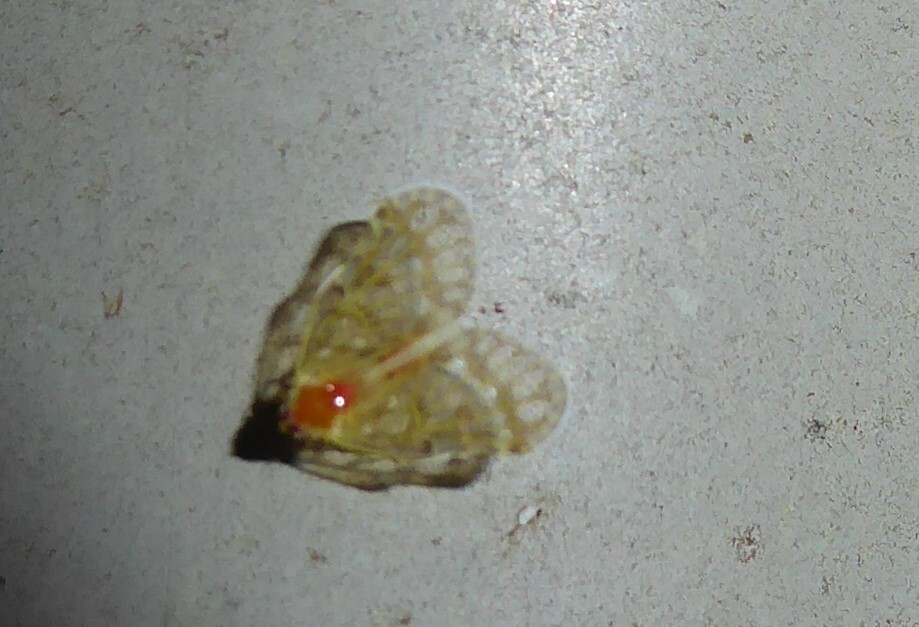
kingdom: Animalia
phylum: Arthropoda
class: Insecta
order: Hemiptera
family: Derbidae
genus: Saccharodite
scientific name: Saccharodite chrysonoe
